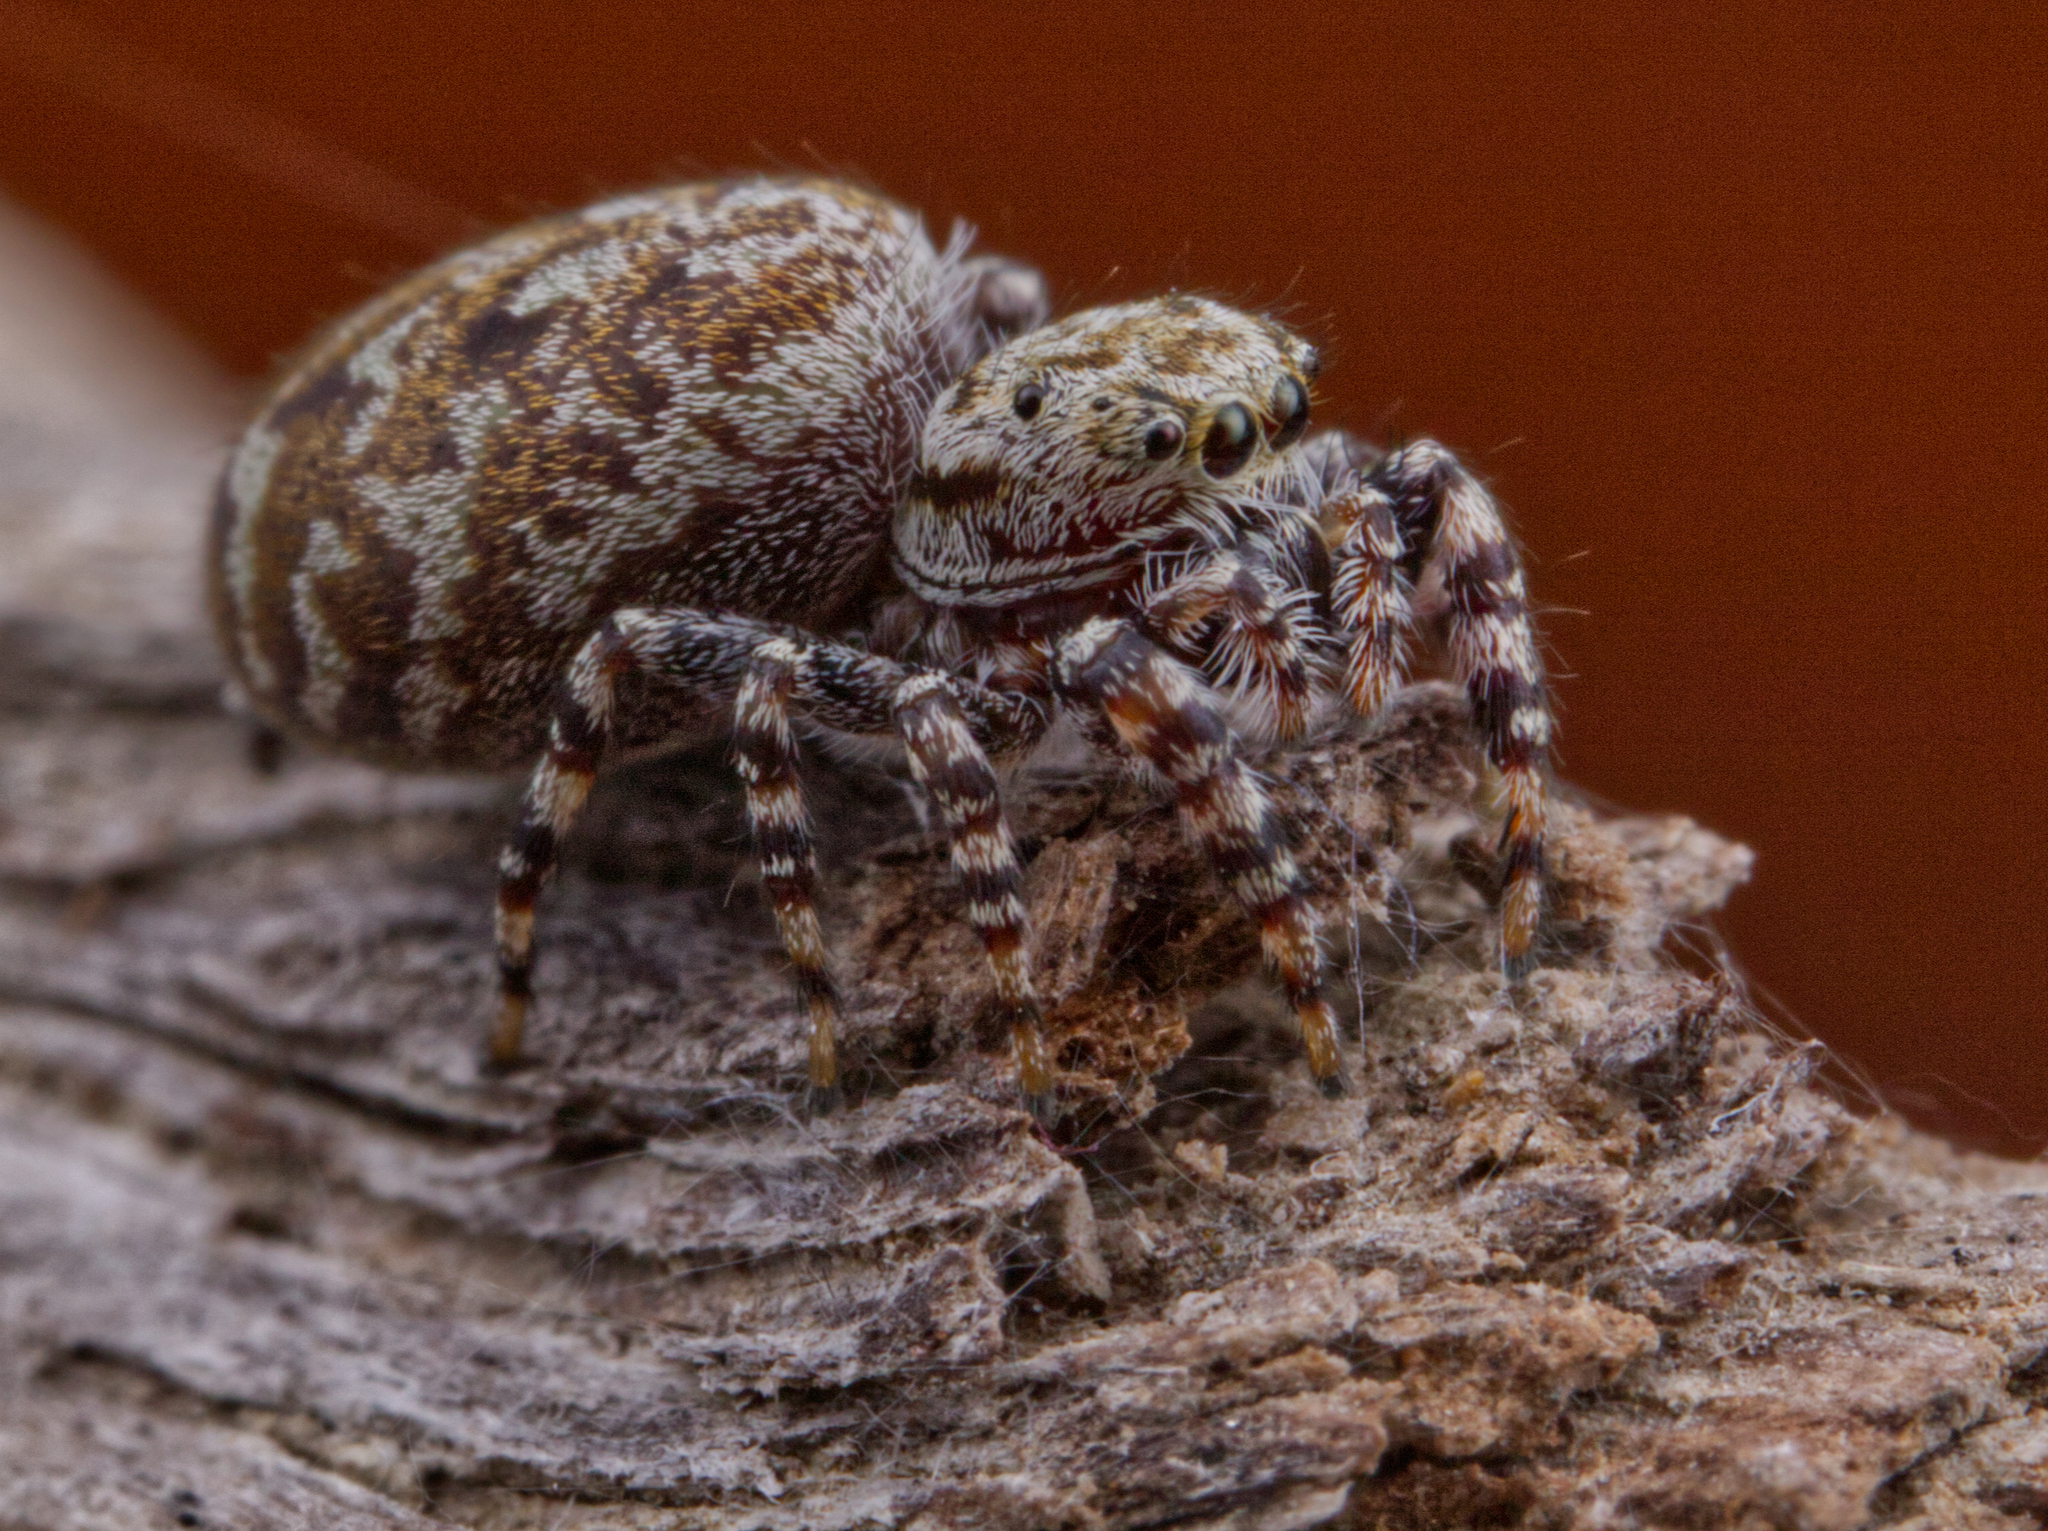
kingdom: Animalia
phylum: Arthropoda
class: Arachnida
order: Araneae
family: Salticidae
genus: Pelegrina
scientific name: Pelegrina galathea
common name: Jumping spiders
